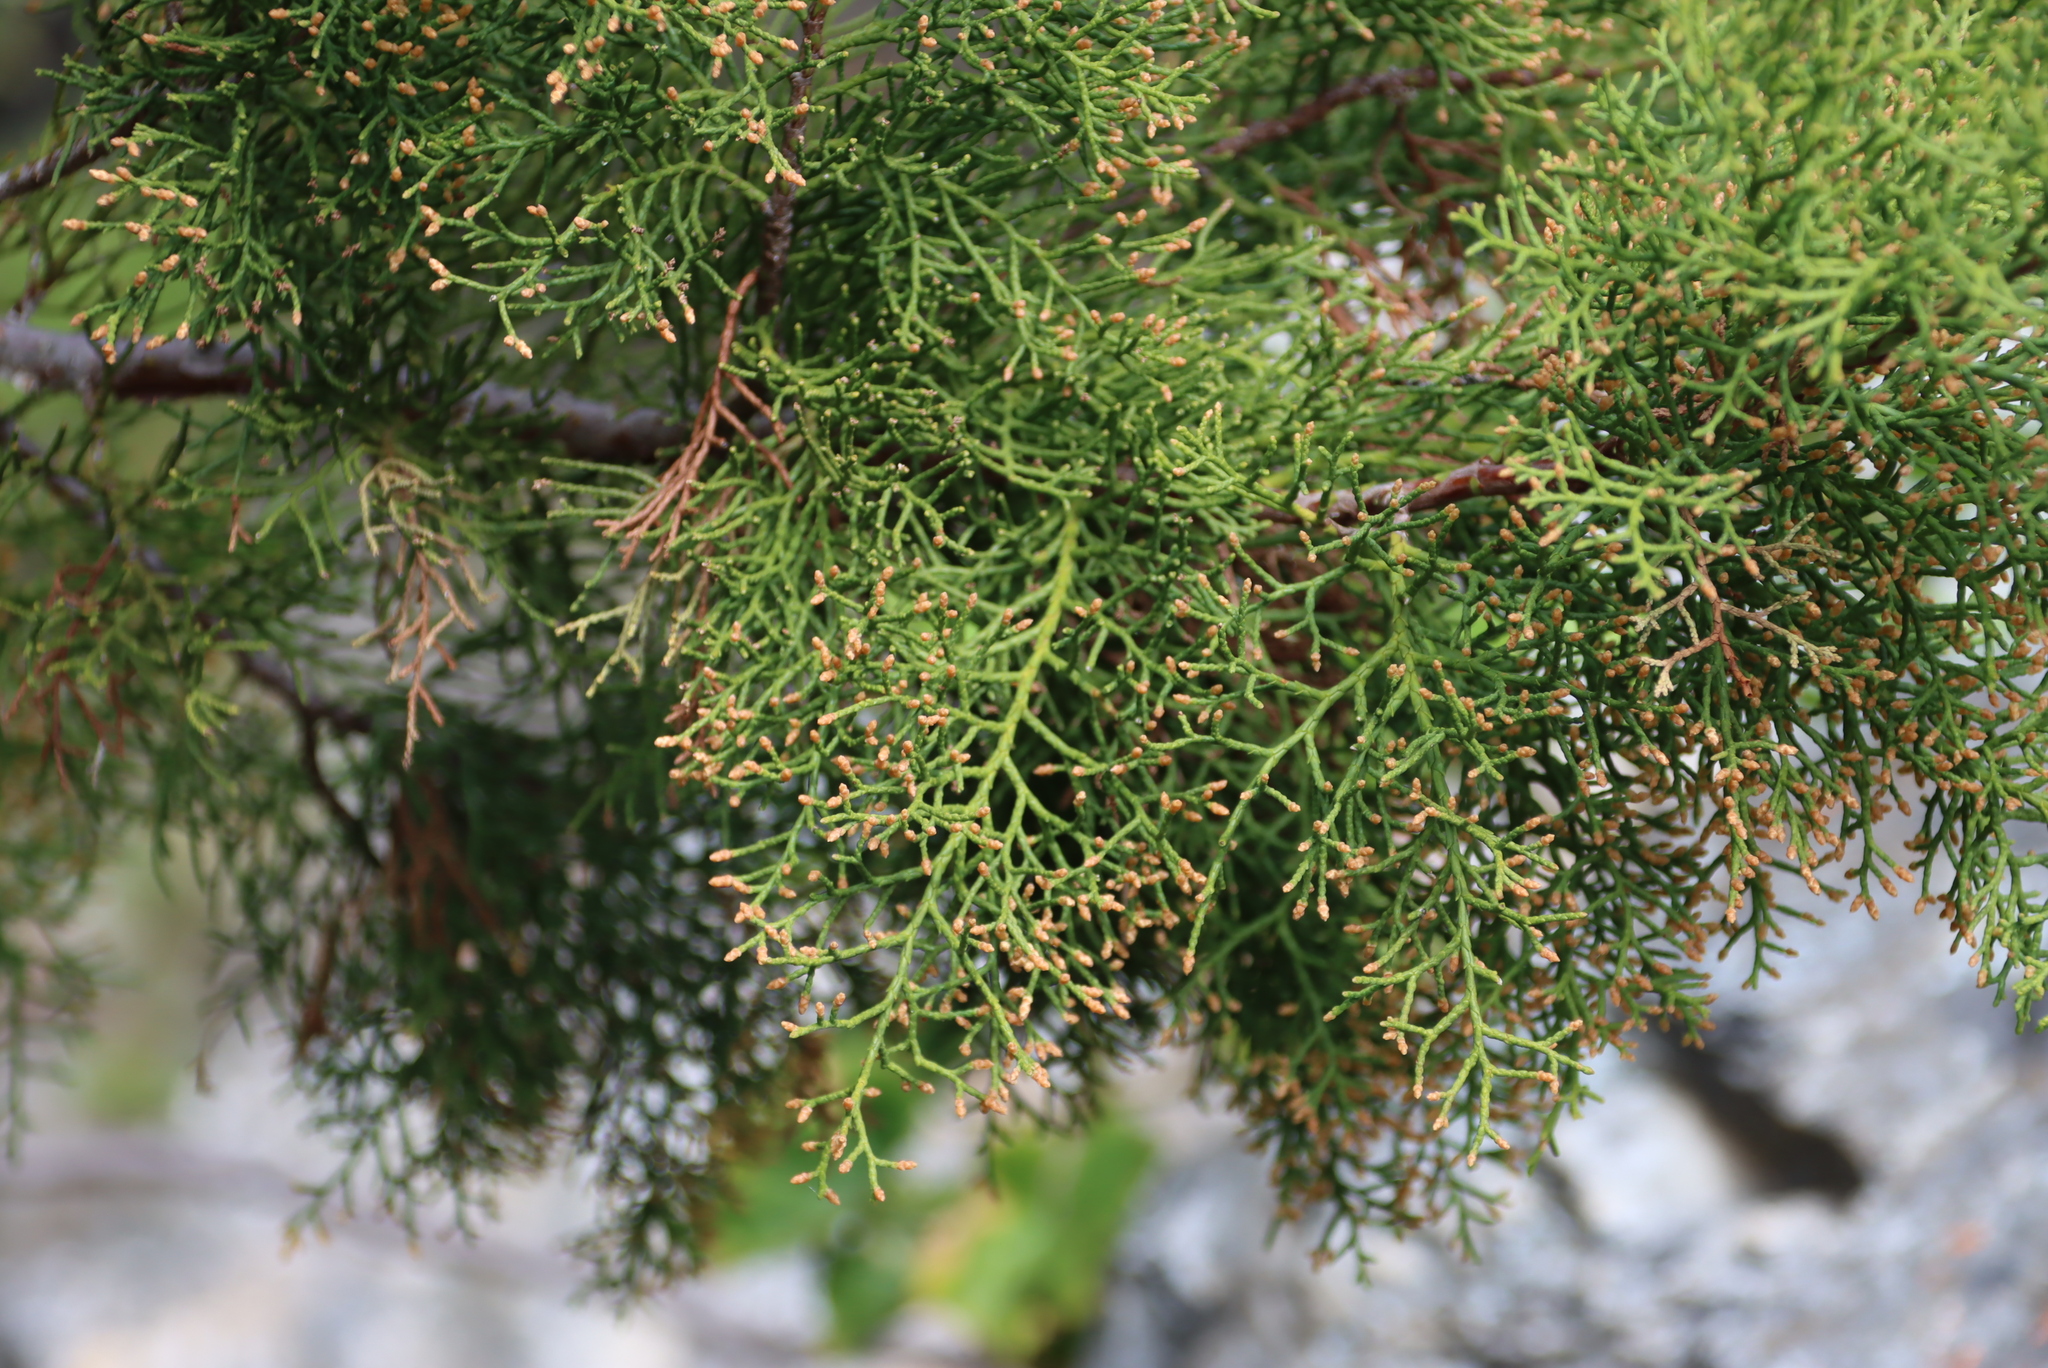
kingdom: Plantae
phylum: Tracheophyta
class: Pinopsida
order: Pinales
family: Cupressaceae
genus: Widdringtonia
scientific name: Widdringtonia schwarzii
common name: Baviaans cedar
